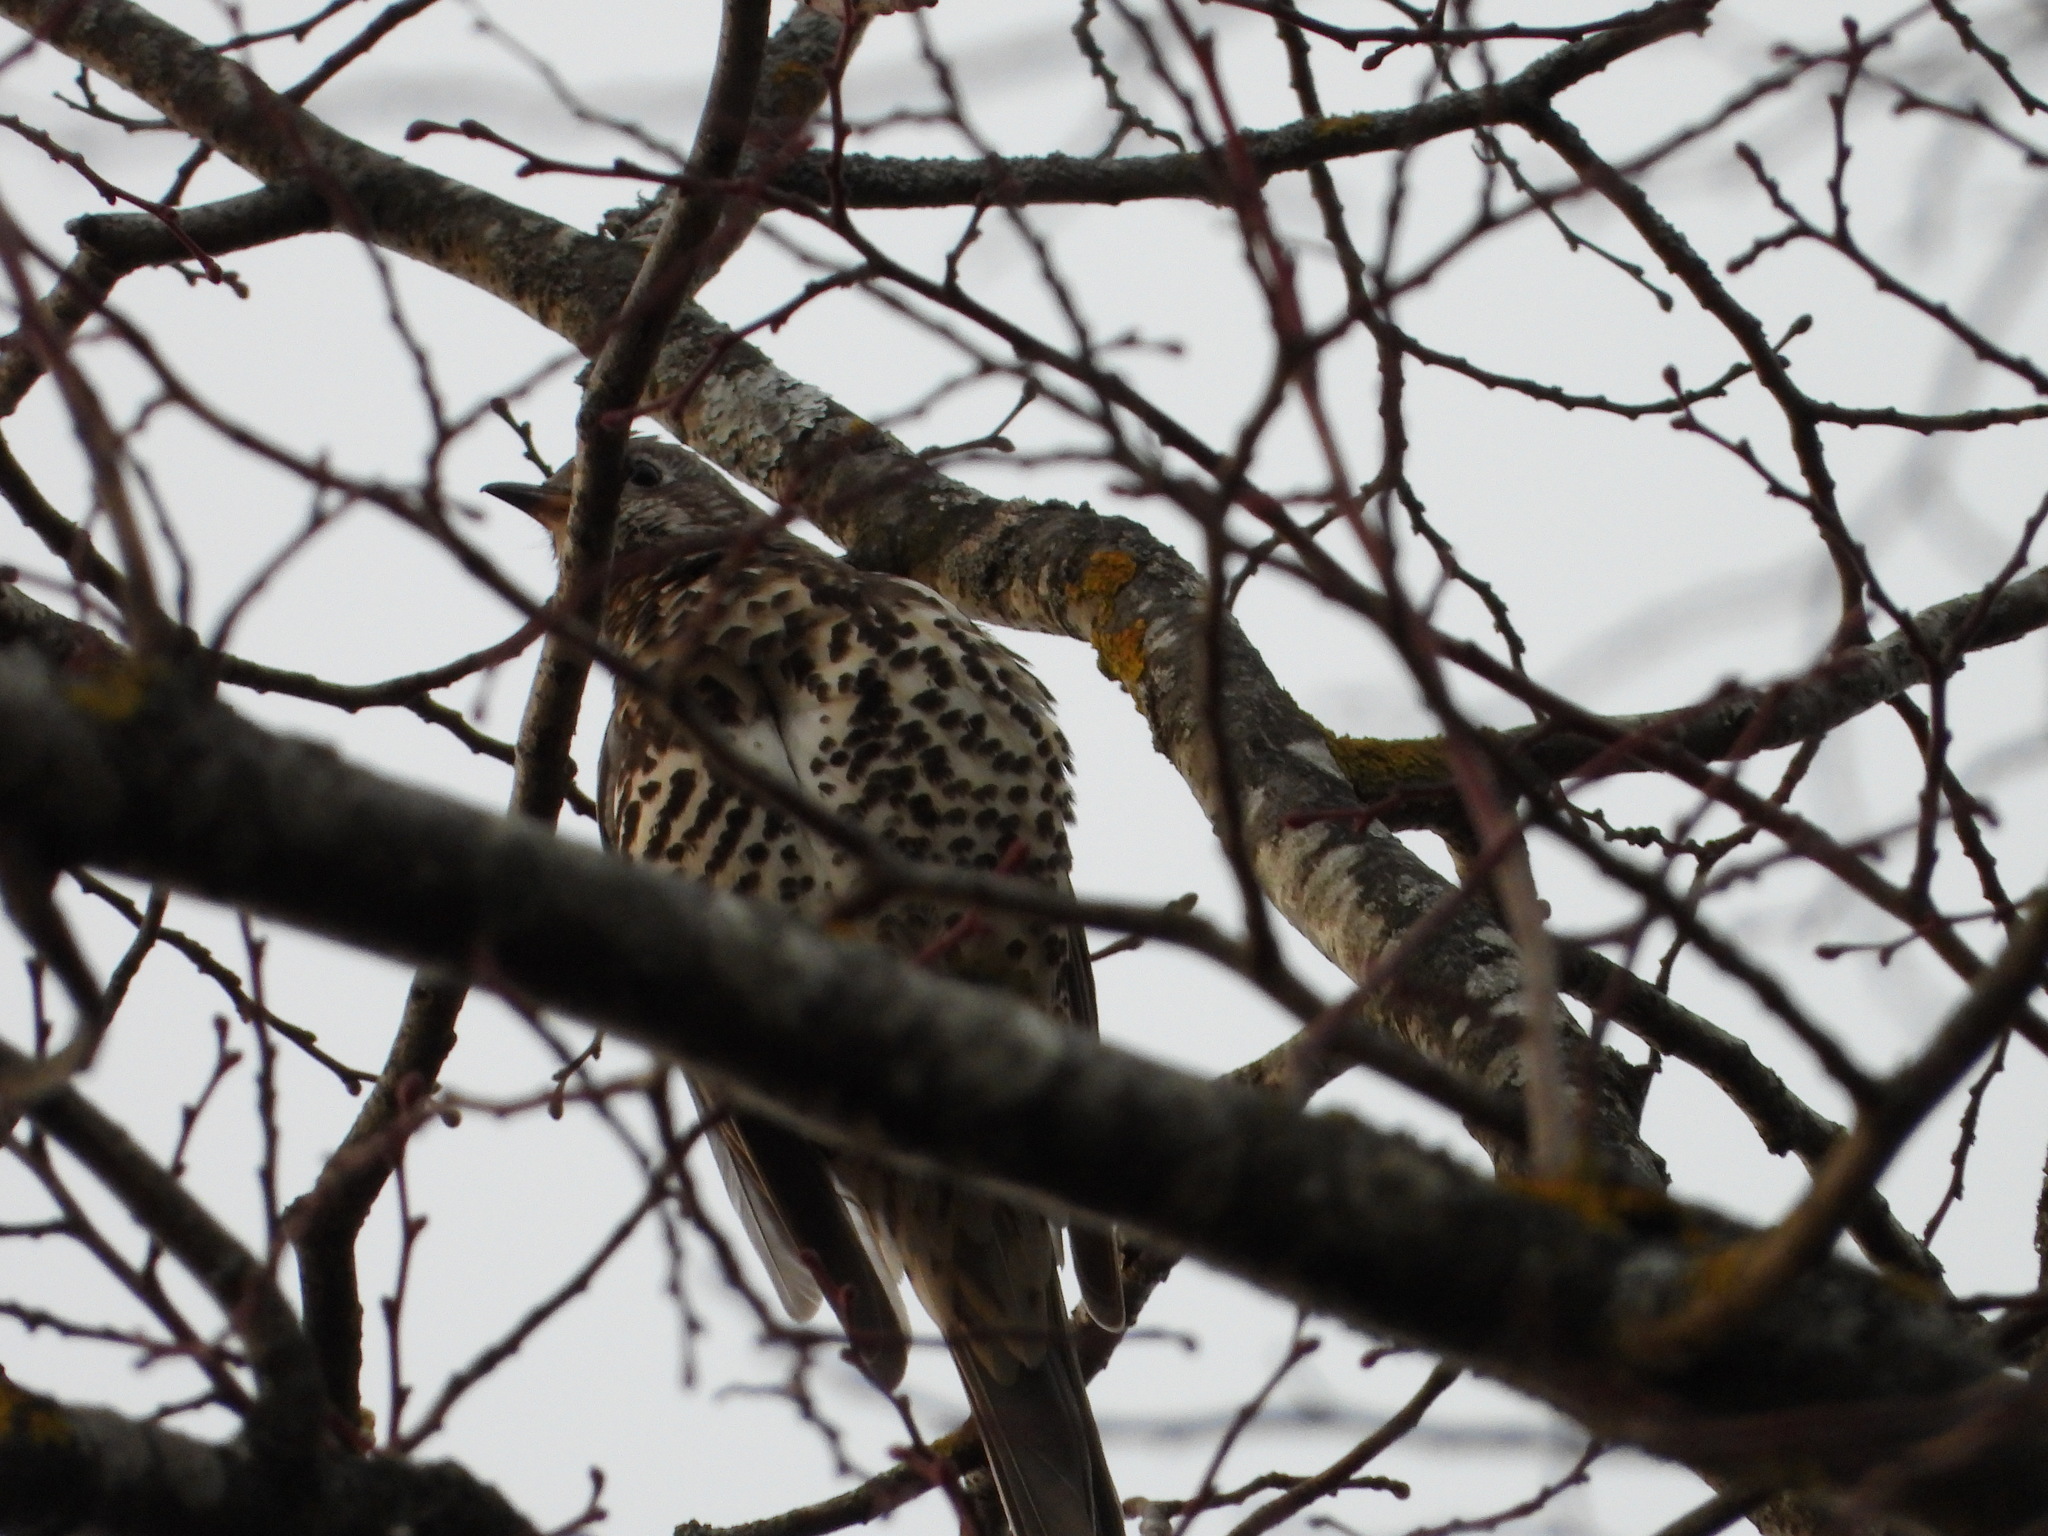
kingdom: Animalia
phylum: Chordata
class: Aves
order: Passeriformes
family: Turdidae
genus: Turdus
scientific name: Turdus viscivorus
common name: Mistle thrush
